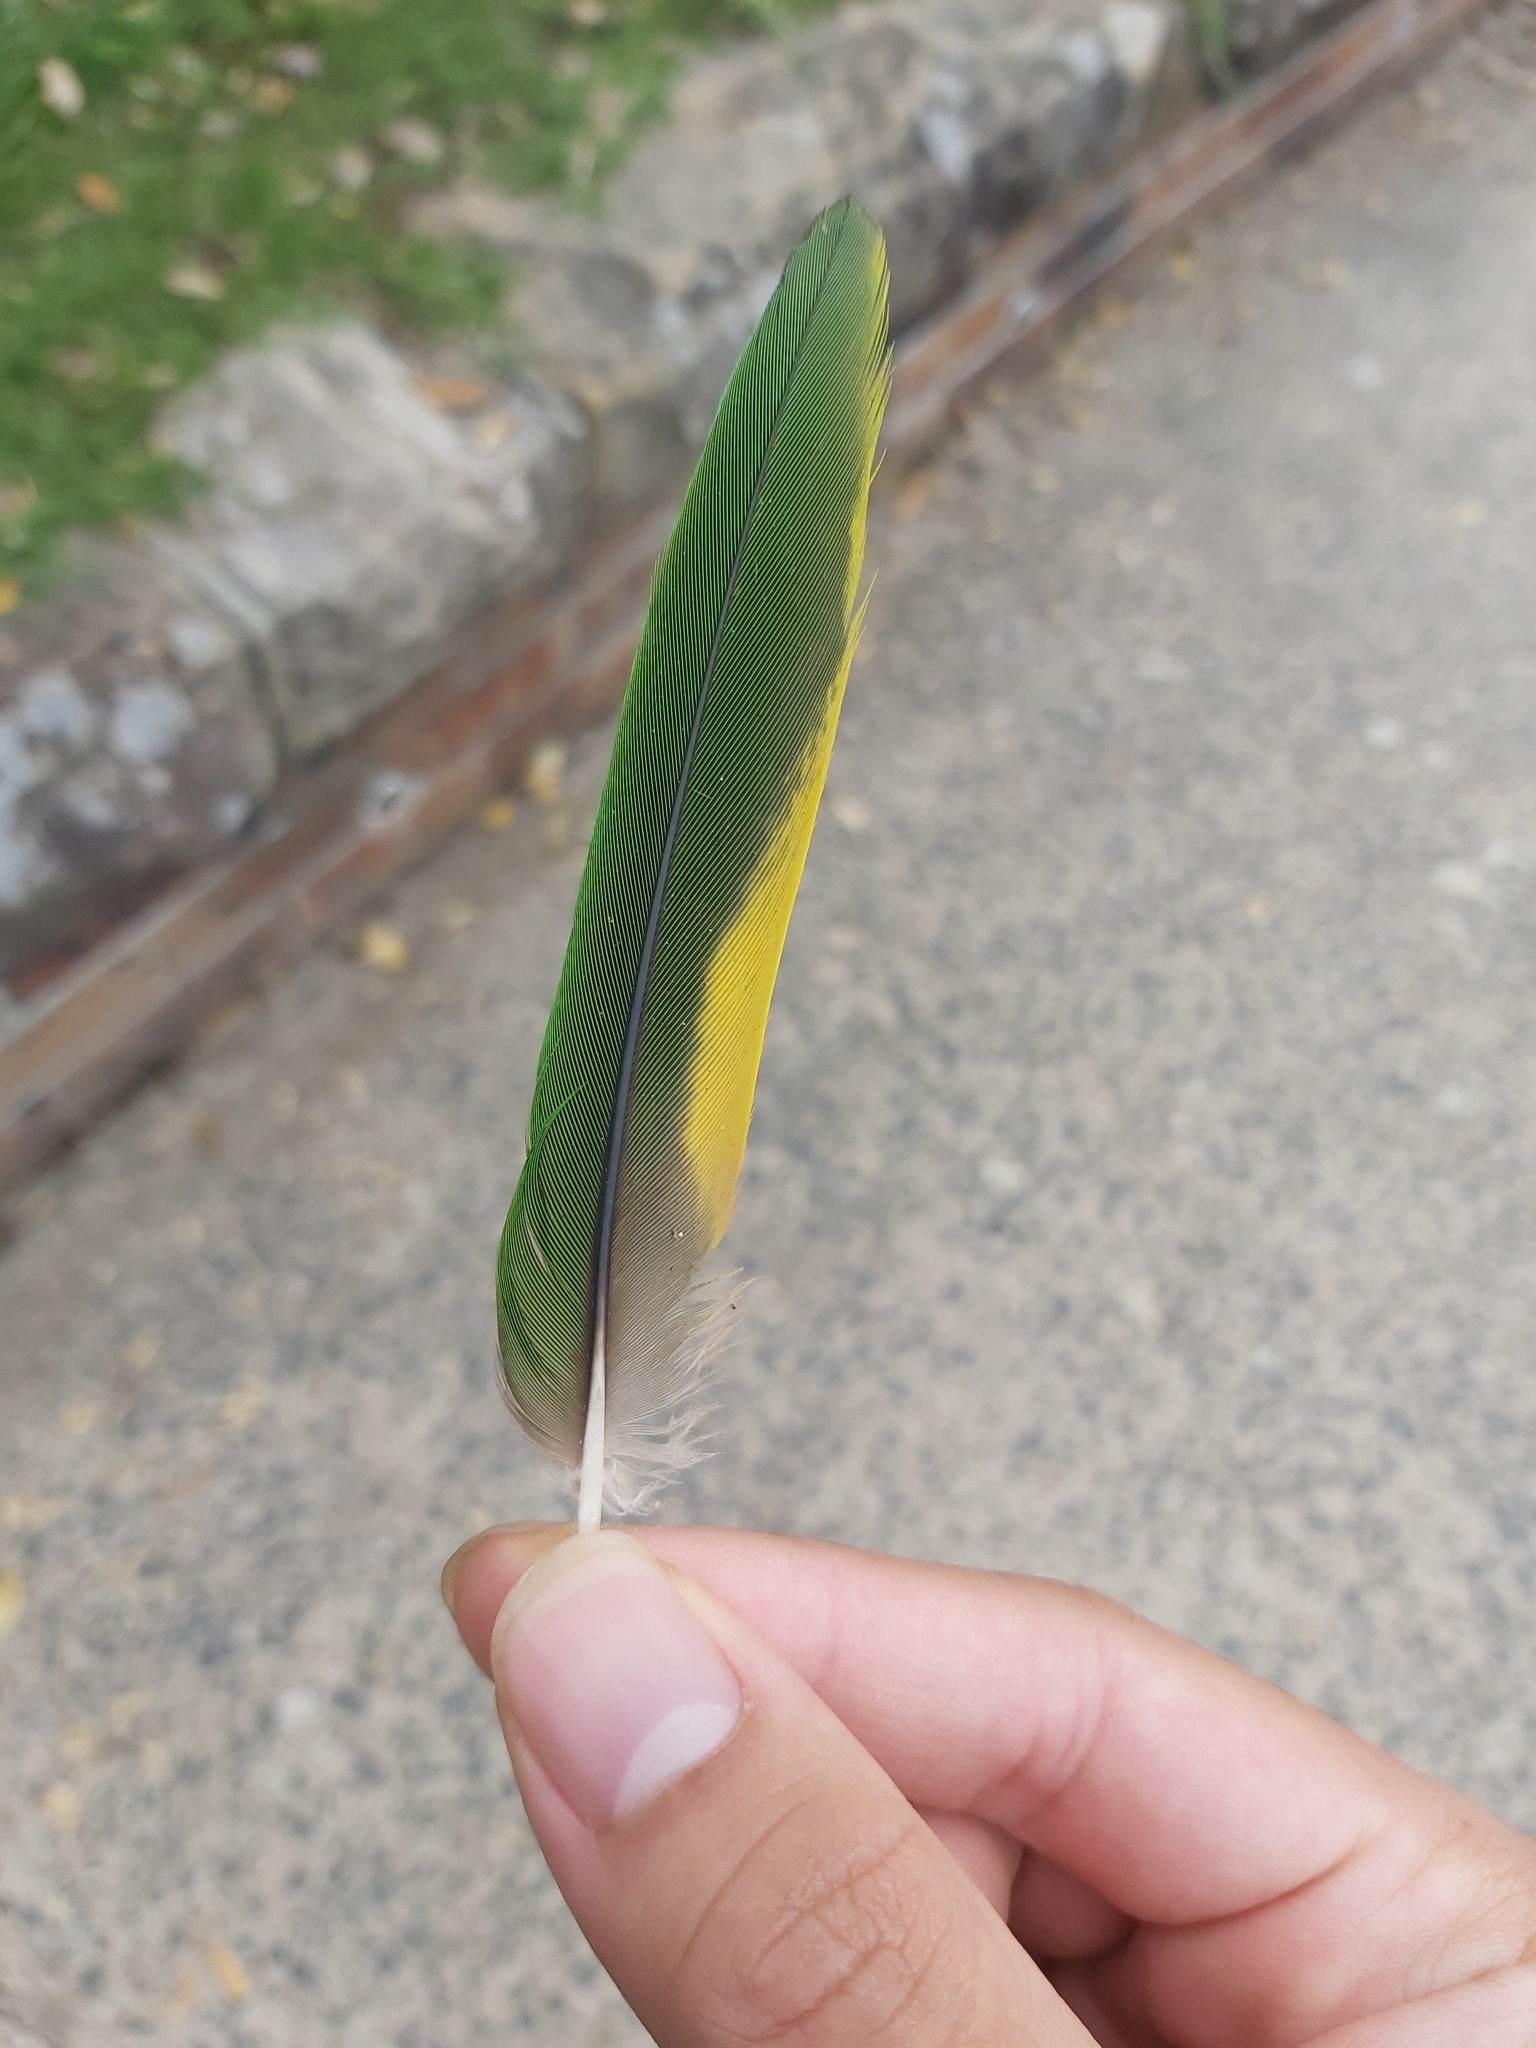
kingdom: Animalia
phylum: Chordata
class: Aves
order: Psittaciformes
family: Psittacidae
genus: Trichoglossus
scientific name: Trichoglossus haematodus
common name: Coconut lorikeet
